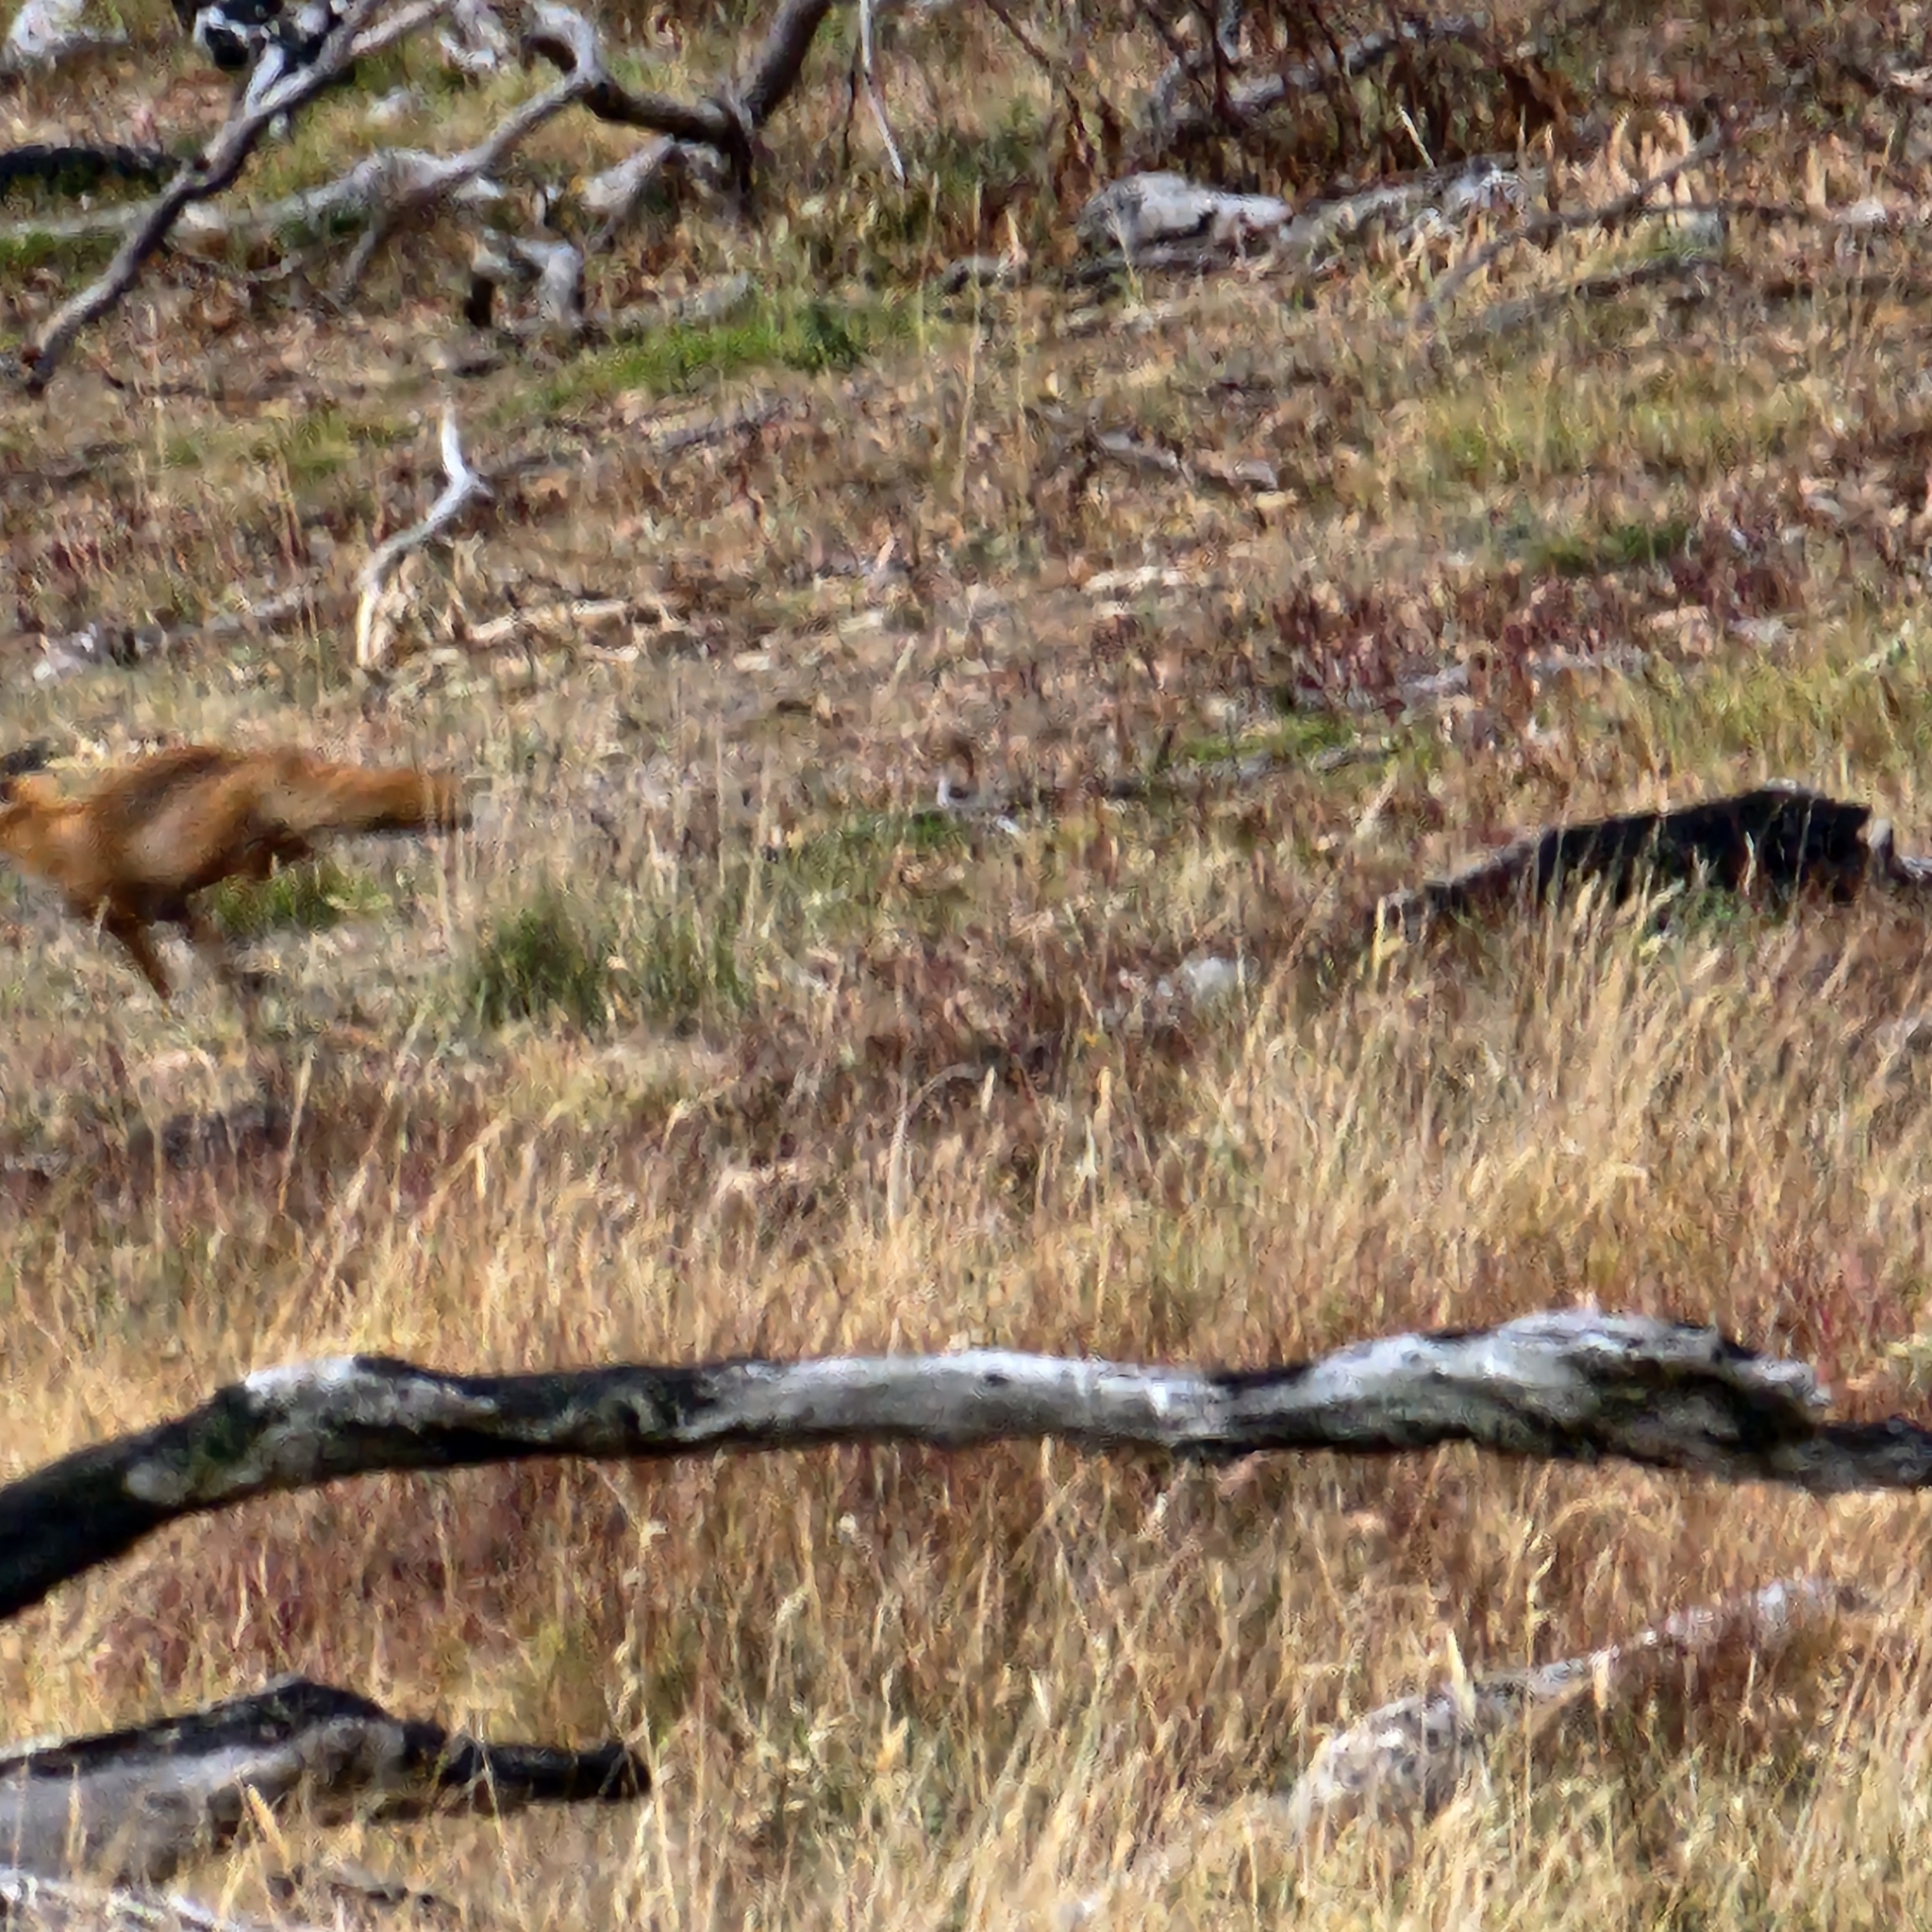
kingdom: Animalia
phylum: Chordata
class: Mammalia
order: Carnivora
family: Canidae
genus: Vulpes
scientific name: Vulpes vulpes
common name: Red fox
